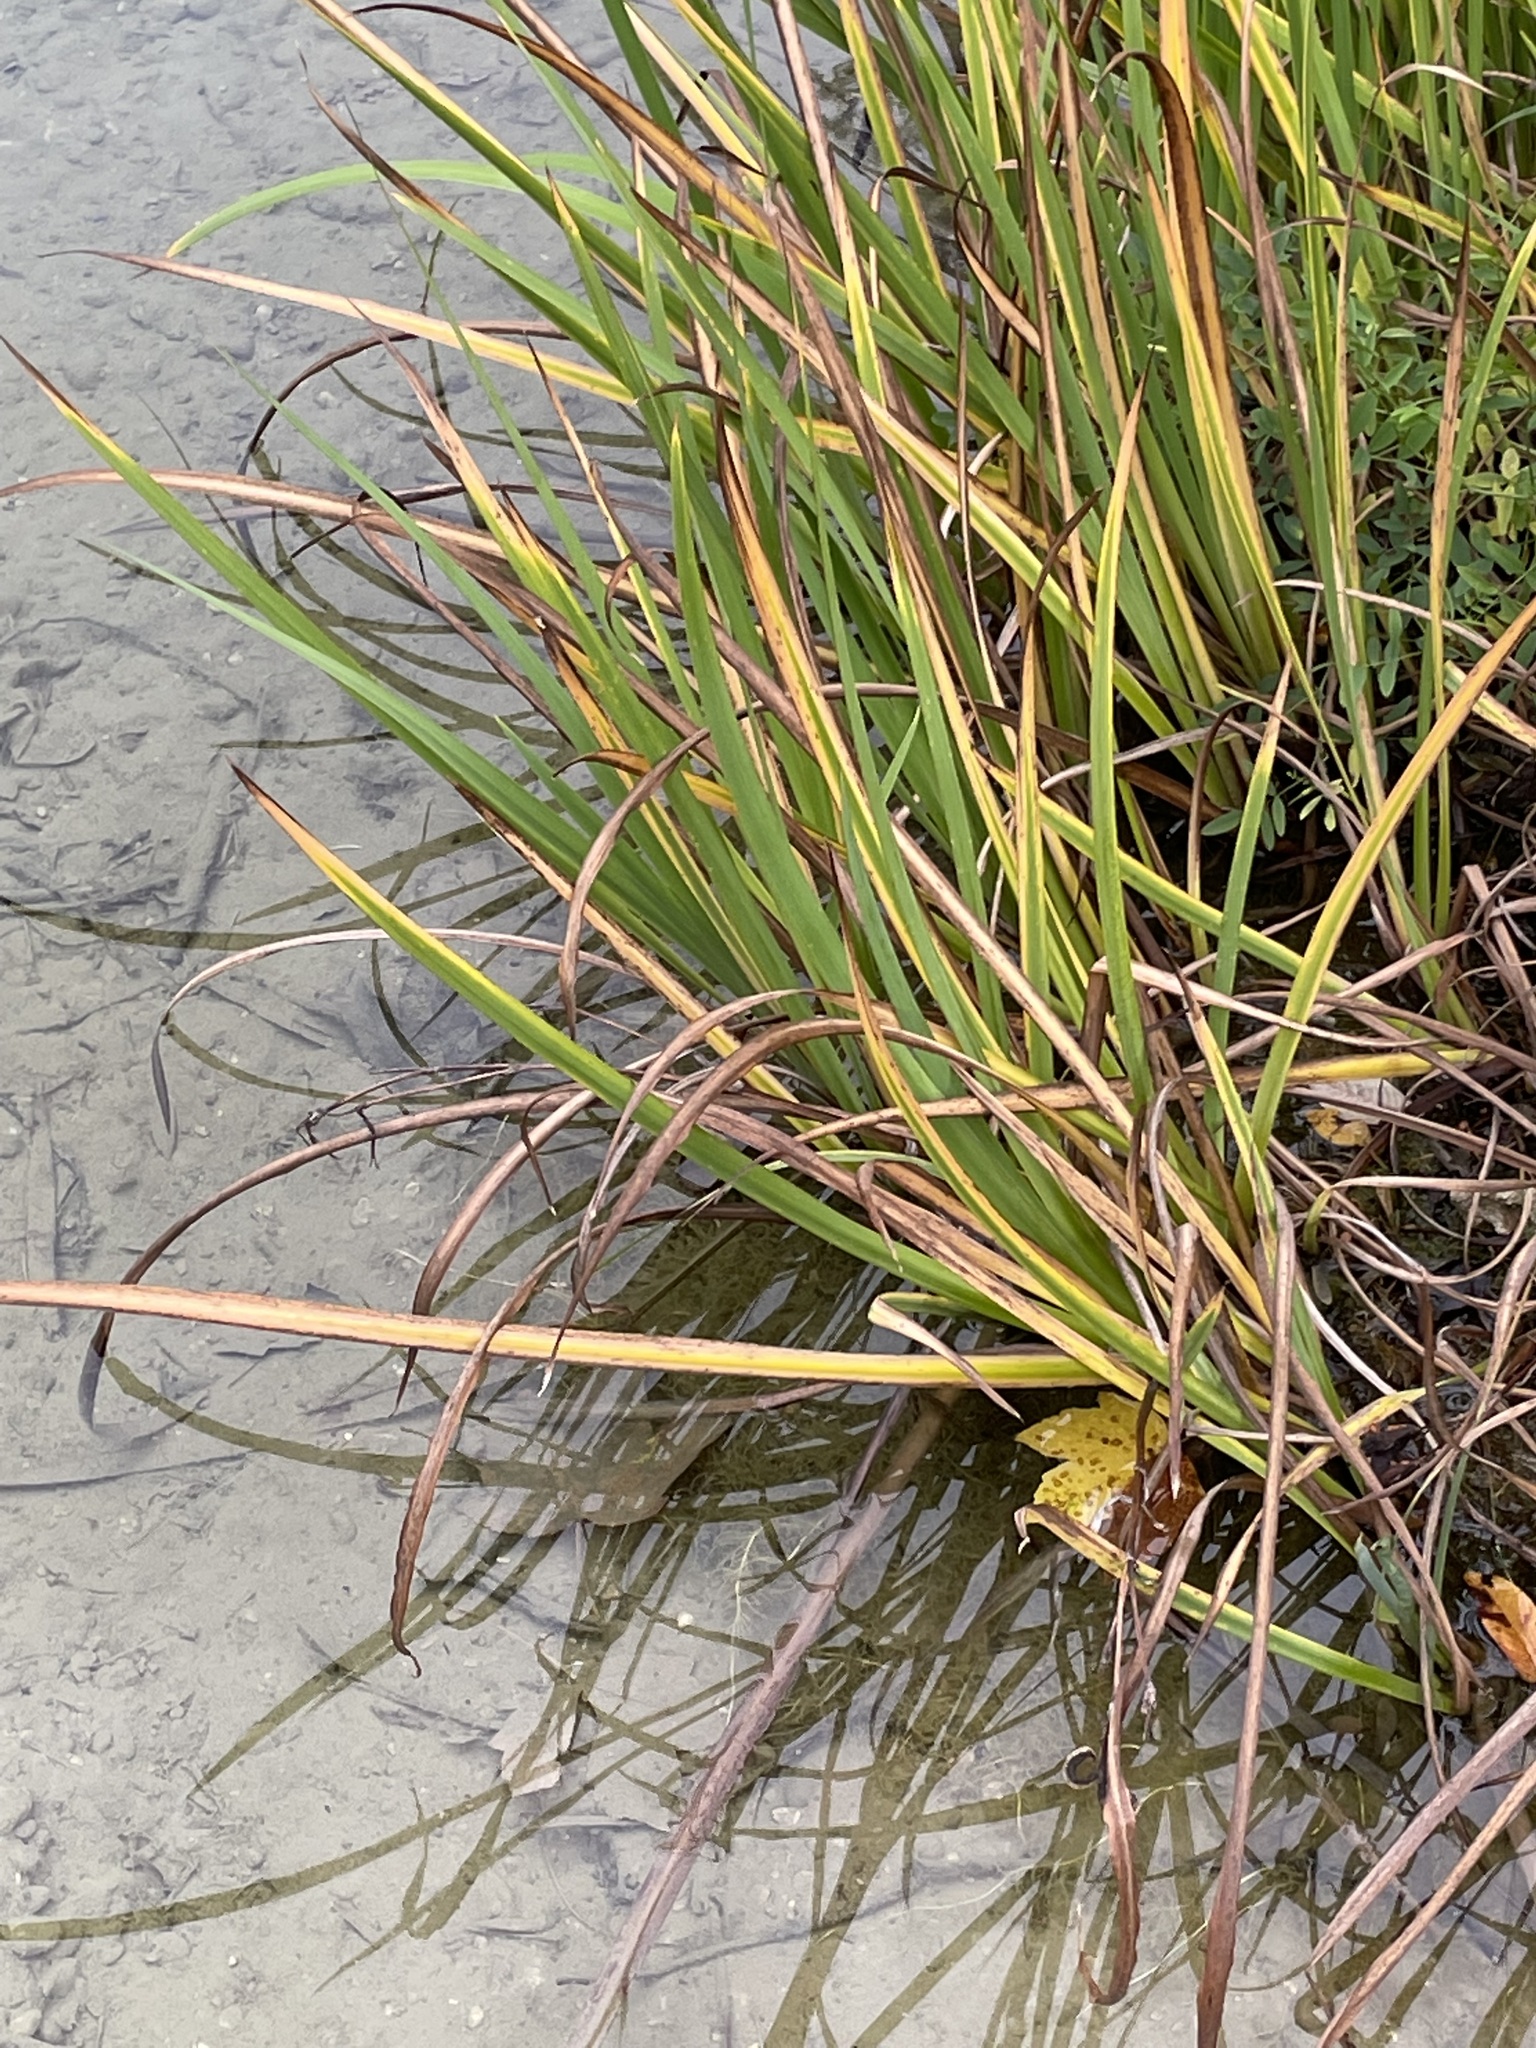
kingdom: Plantae
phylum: Tracheophyta
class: Liliopsida
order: Asparagales
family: Iridaceae
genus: Iris
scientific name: Iris pseudacorus
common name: Yellow flag
